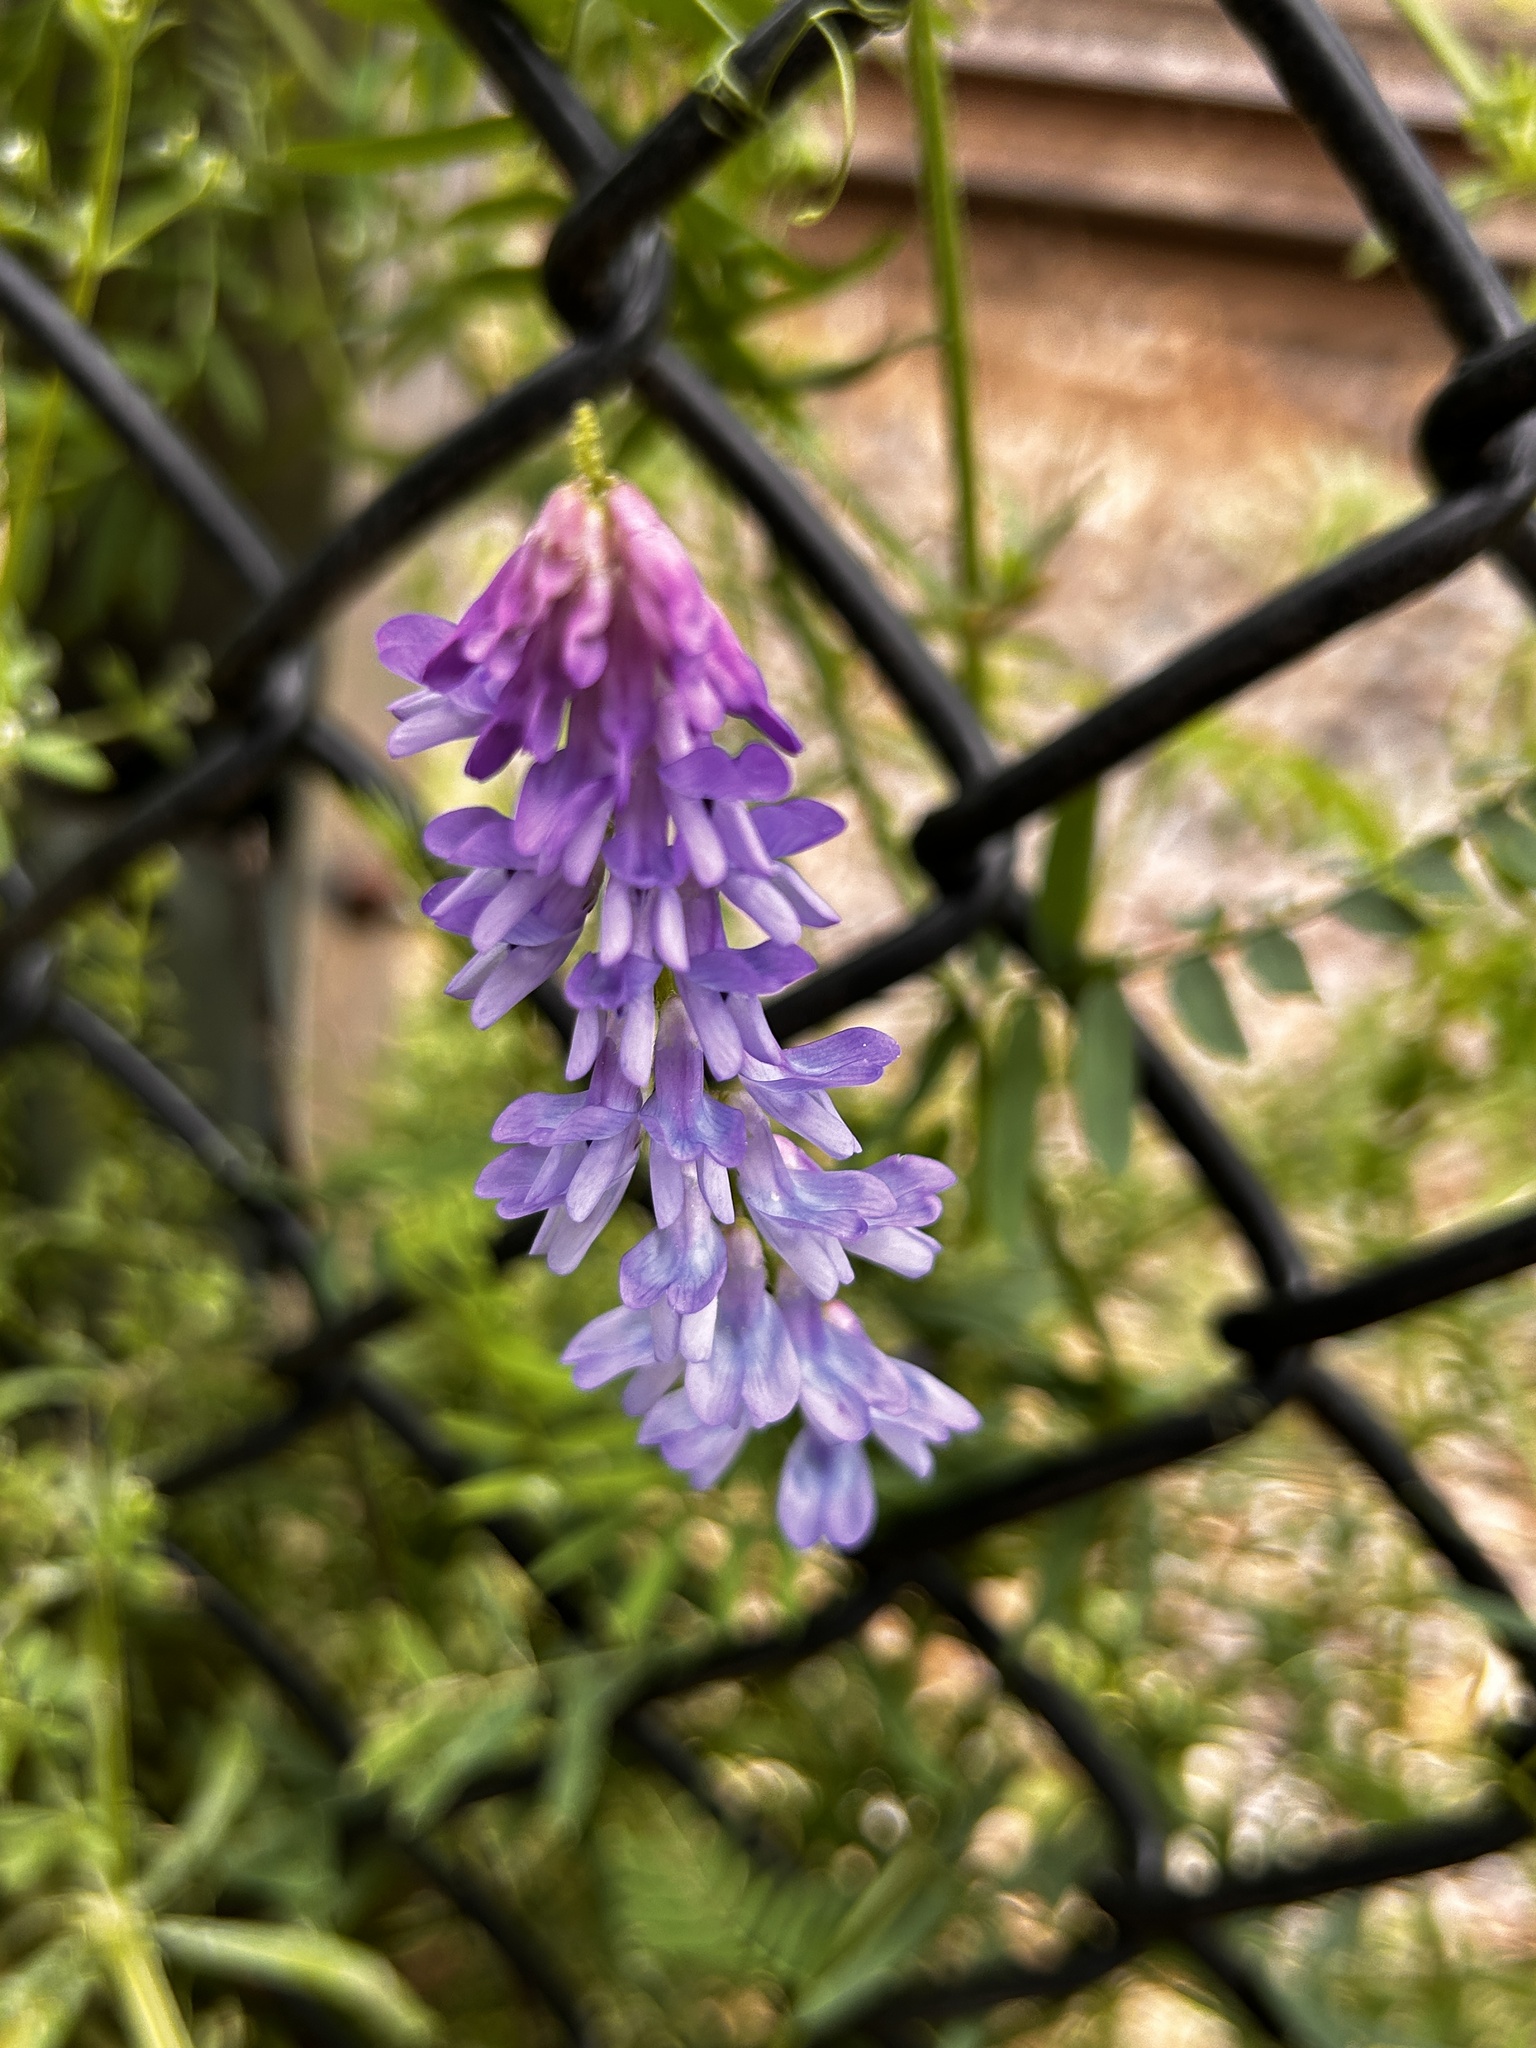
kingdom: Plantae
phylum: Tracheophyta
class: Magnoliopsida
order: Fabales
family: Fabaceae
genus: Vicia
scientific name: Vicia cracca
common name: Bird vetch
